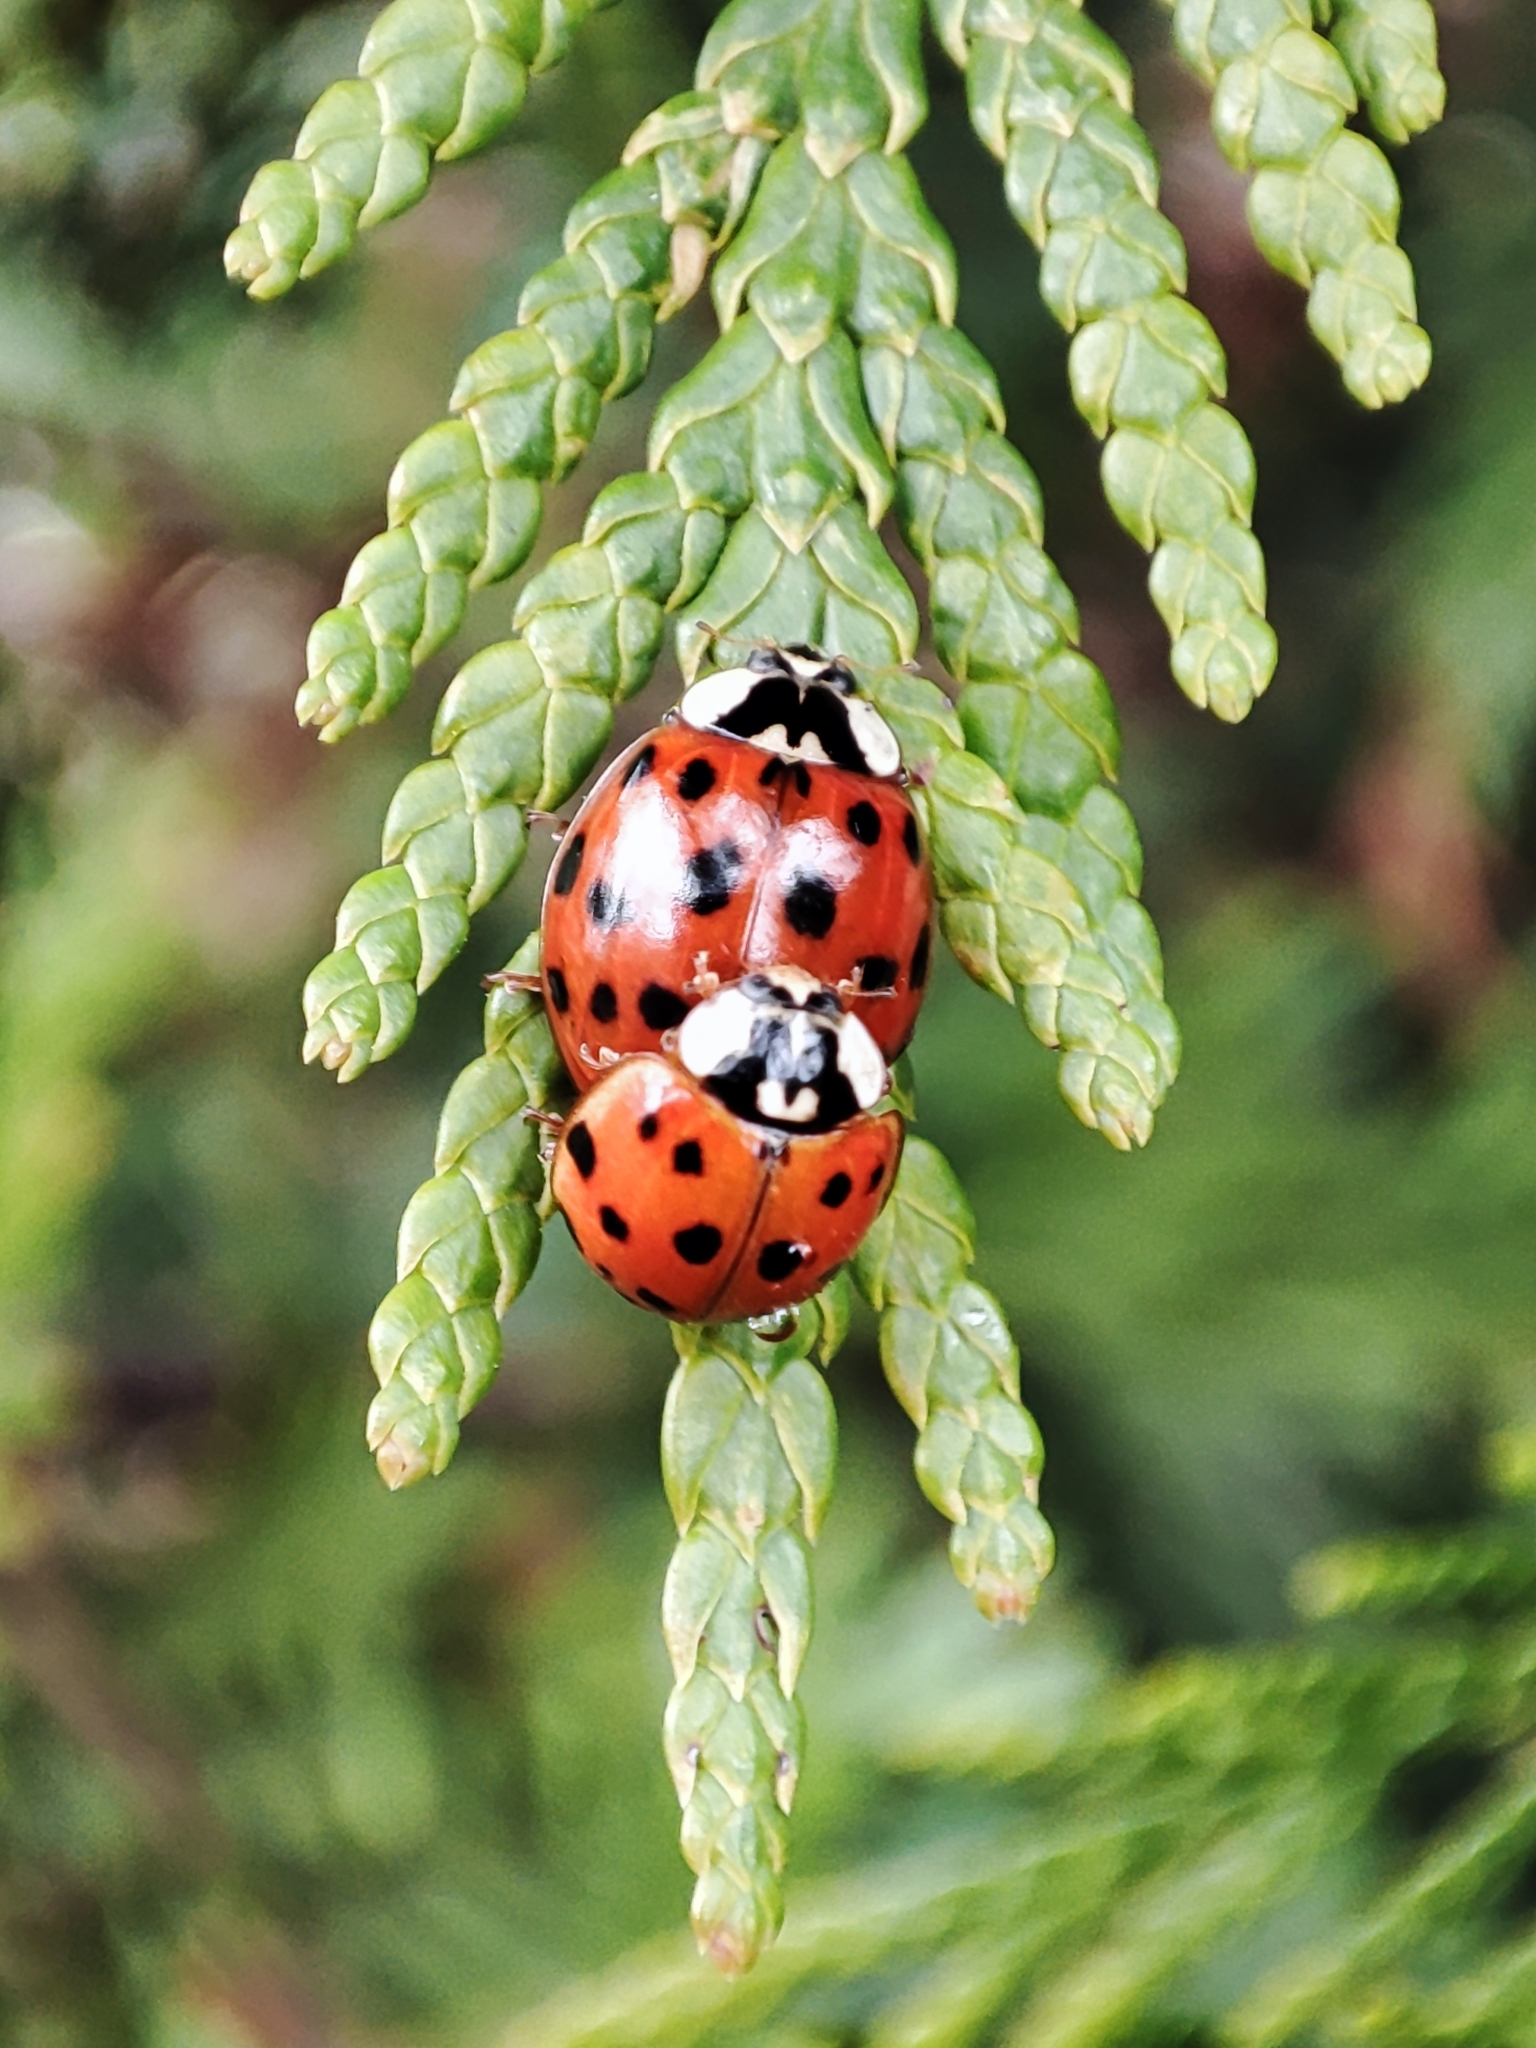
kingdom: Animalia
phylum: Arthropoda
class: Insecta
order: Coleoptera
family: Coccinellidae
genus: Harmonia
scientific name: Harmonia axyridis
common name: Harlequin ladybird
